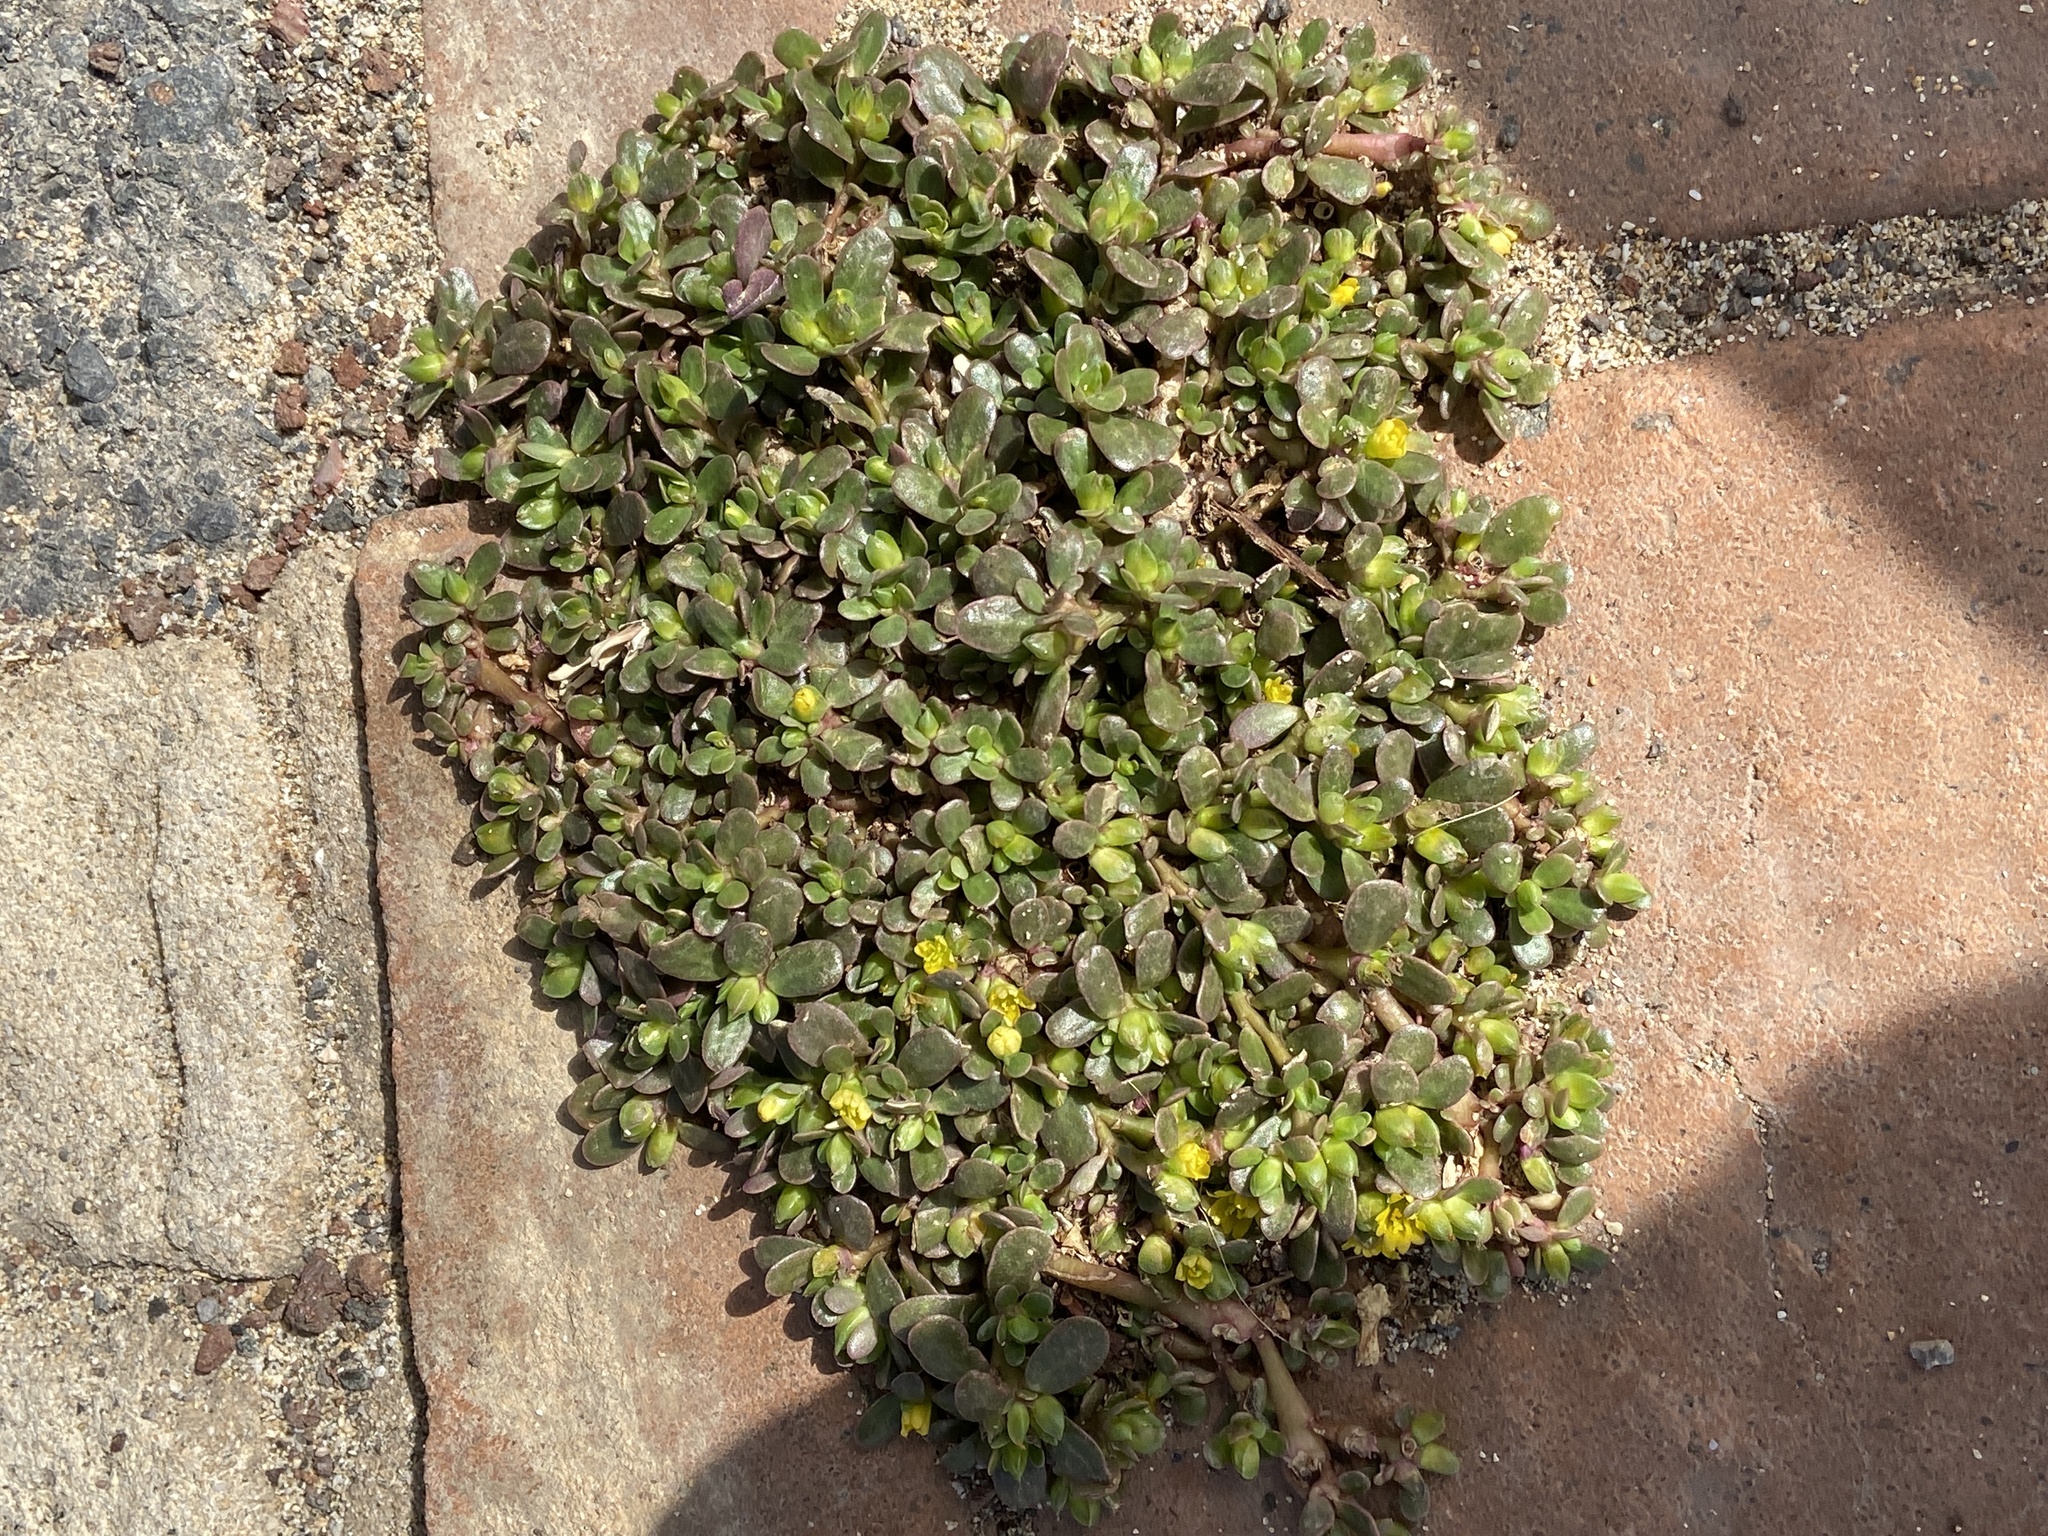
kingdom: Plantae
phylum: Tracheophyta
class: Magnoliopsida
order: Caryophyllales
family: Portulacaceae
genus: Portulaca
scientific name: Portulaca oleracea
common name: Common purslane
